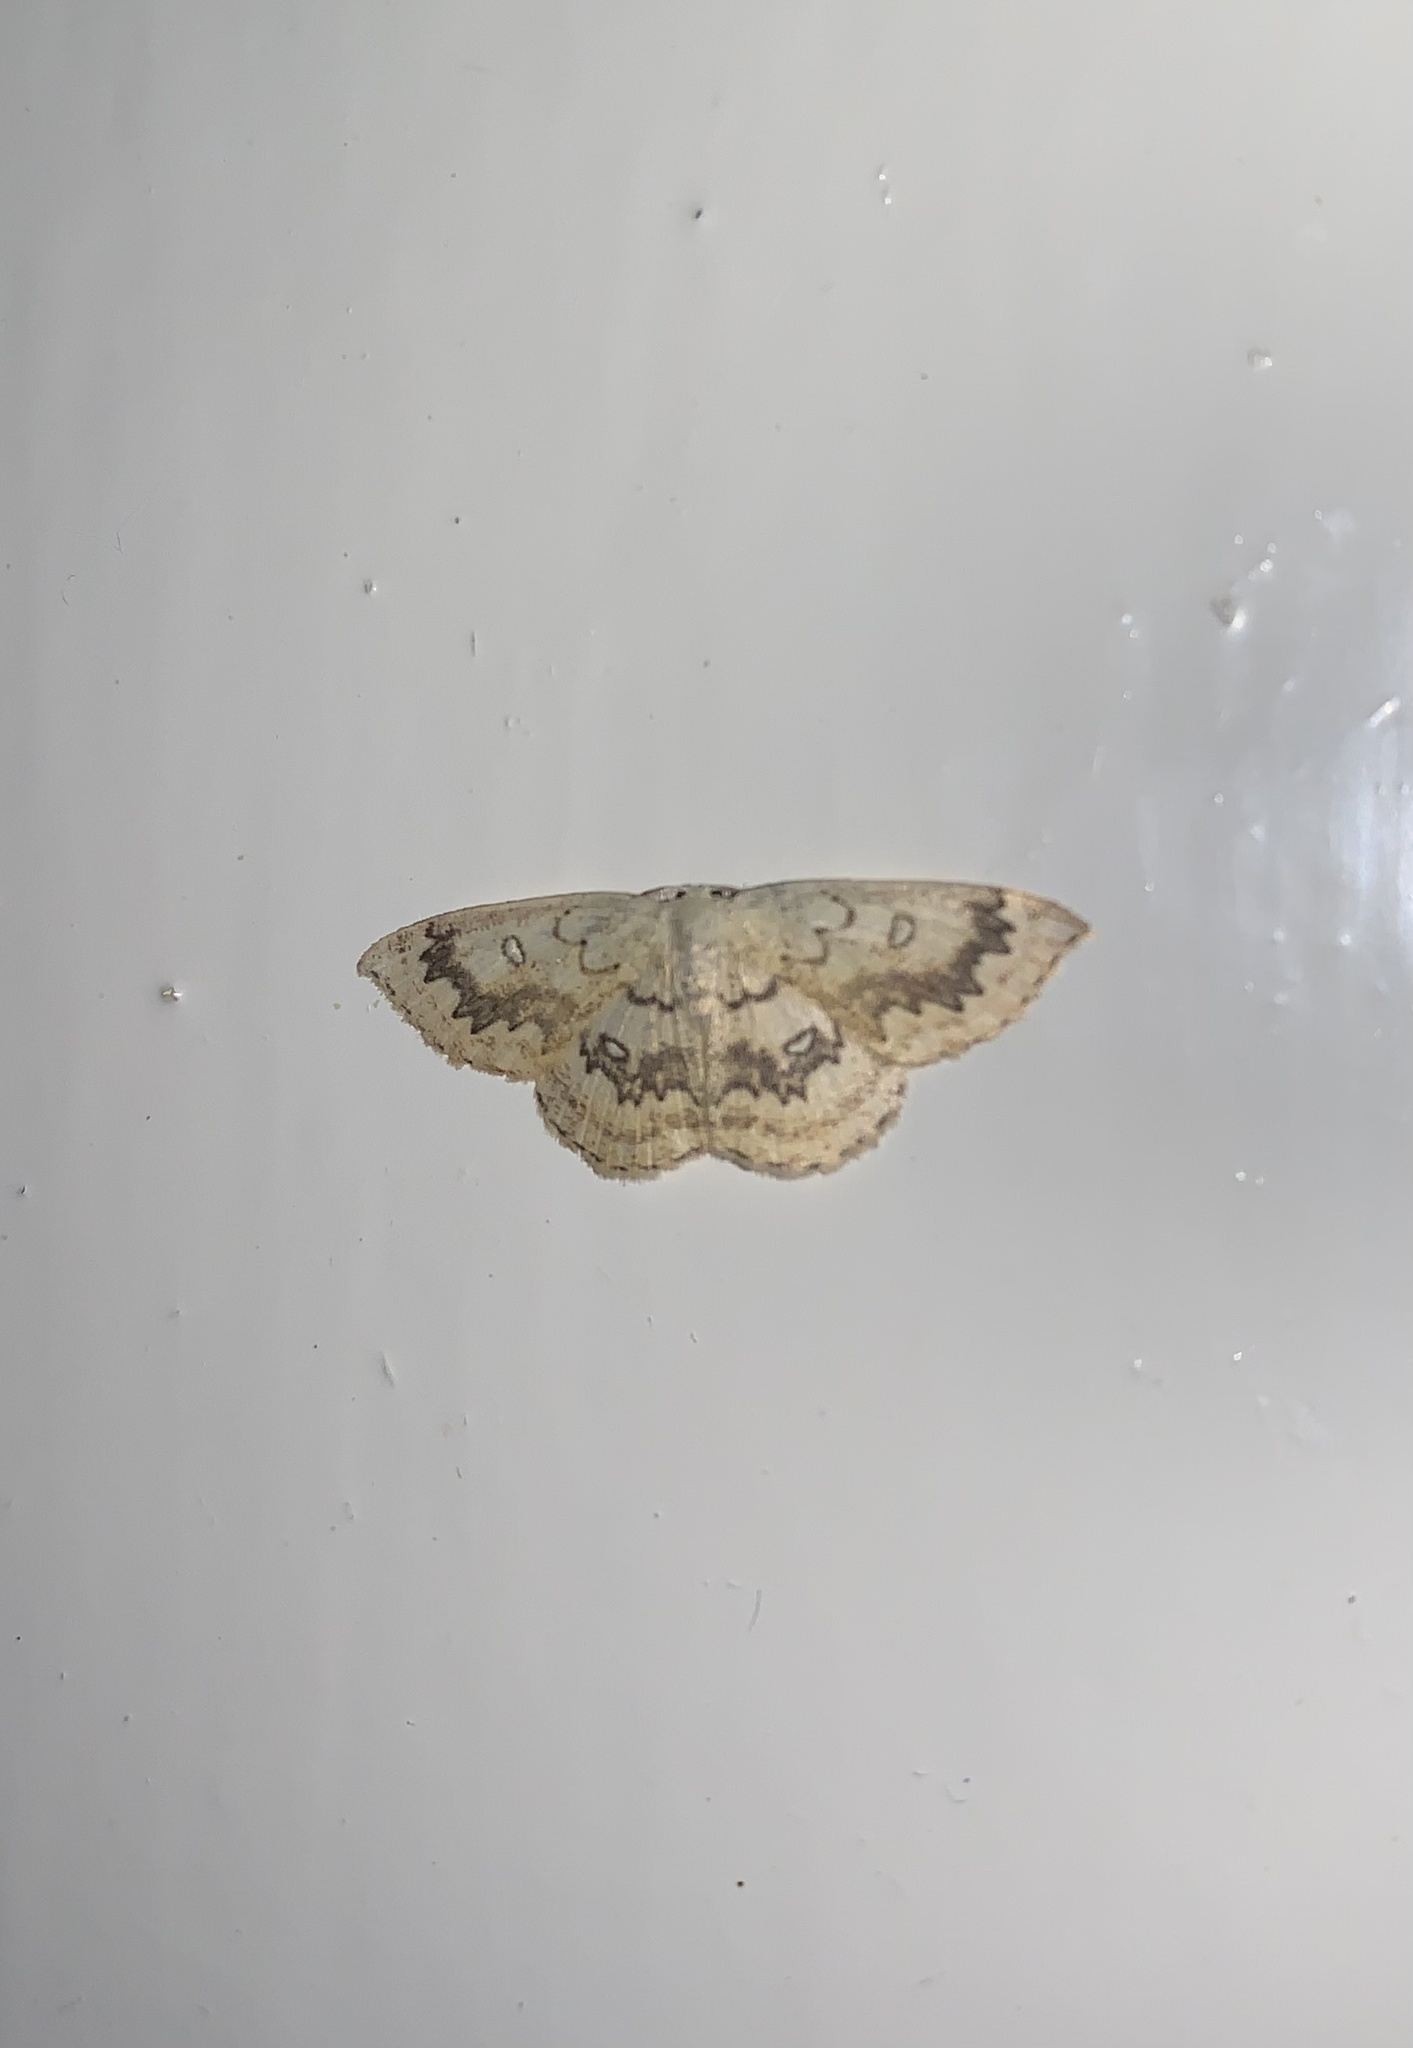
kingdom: Animalia
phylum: Arthropoda
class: Insecta
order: Lepidoptera
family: Geometridae
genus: Cyclophora
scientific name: Cyclophora annularia
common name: Mocha
